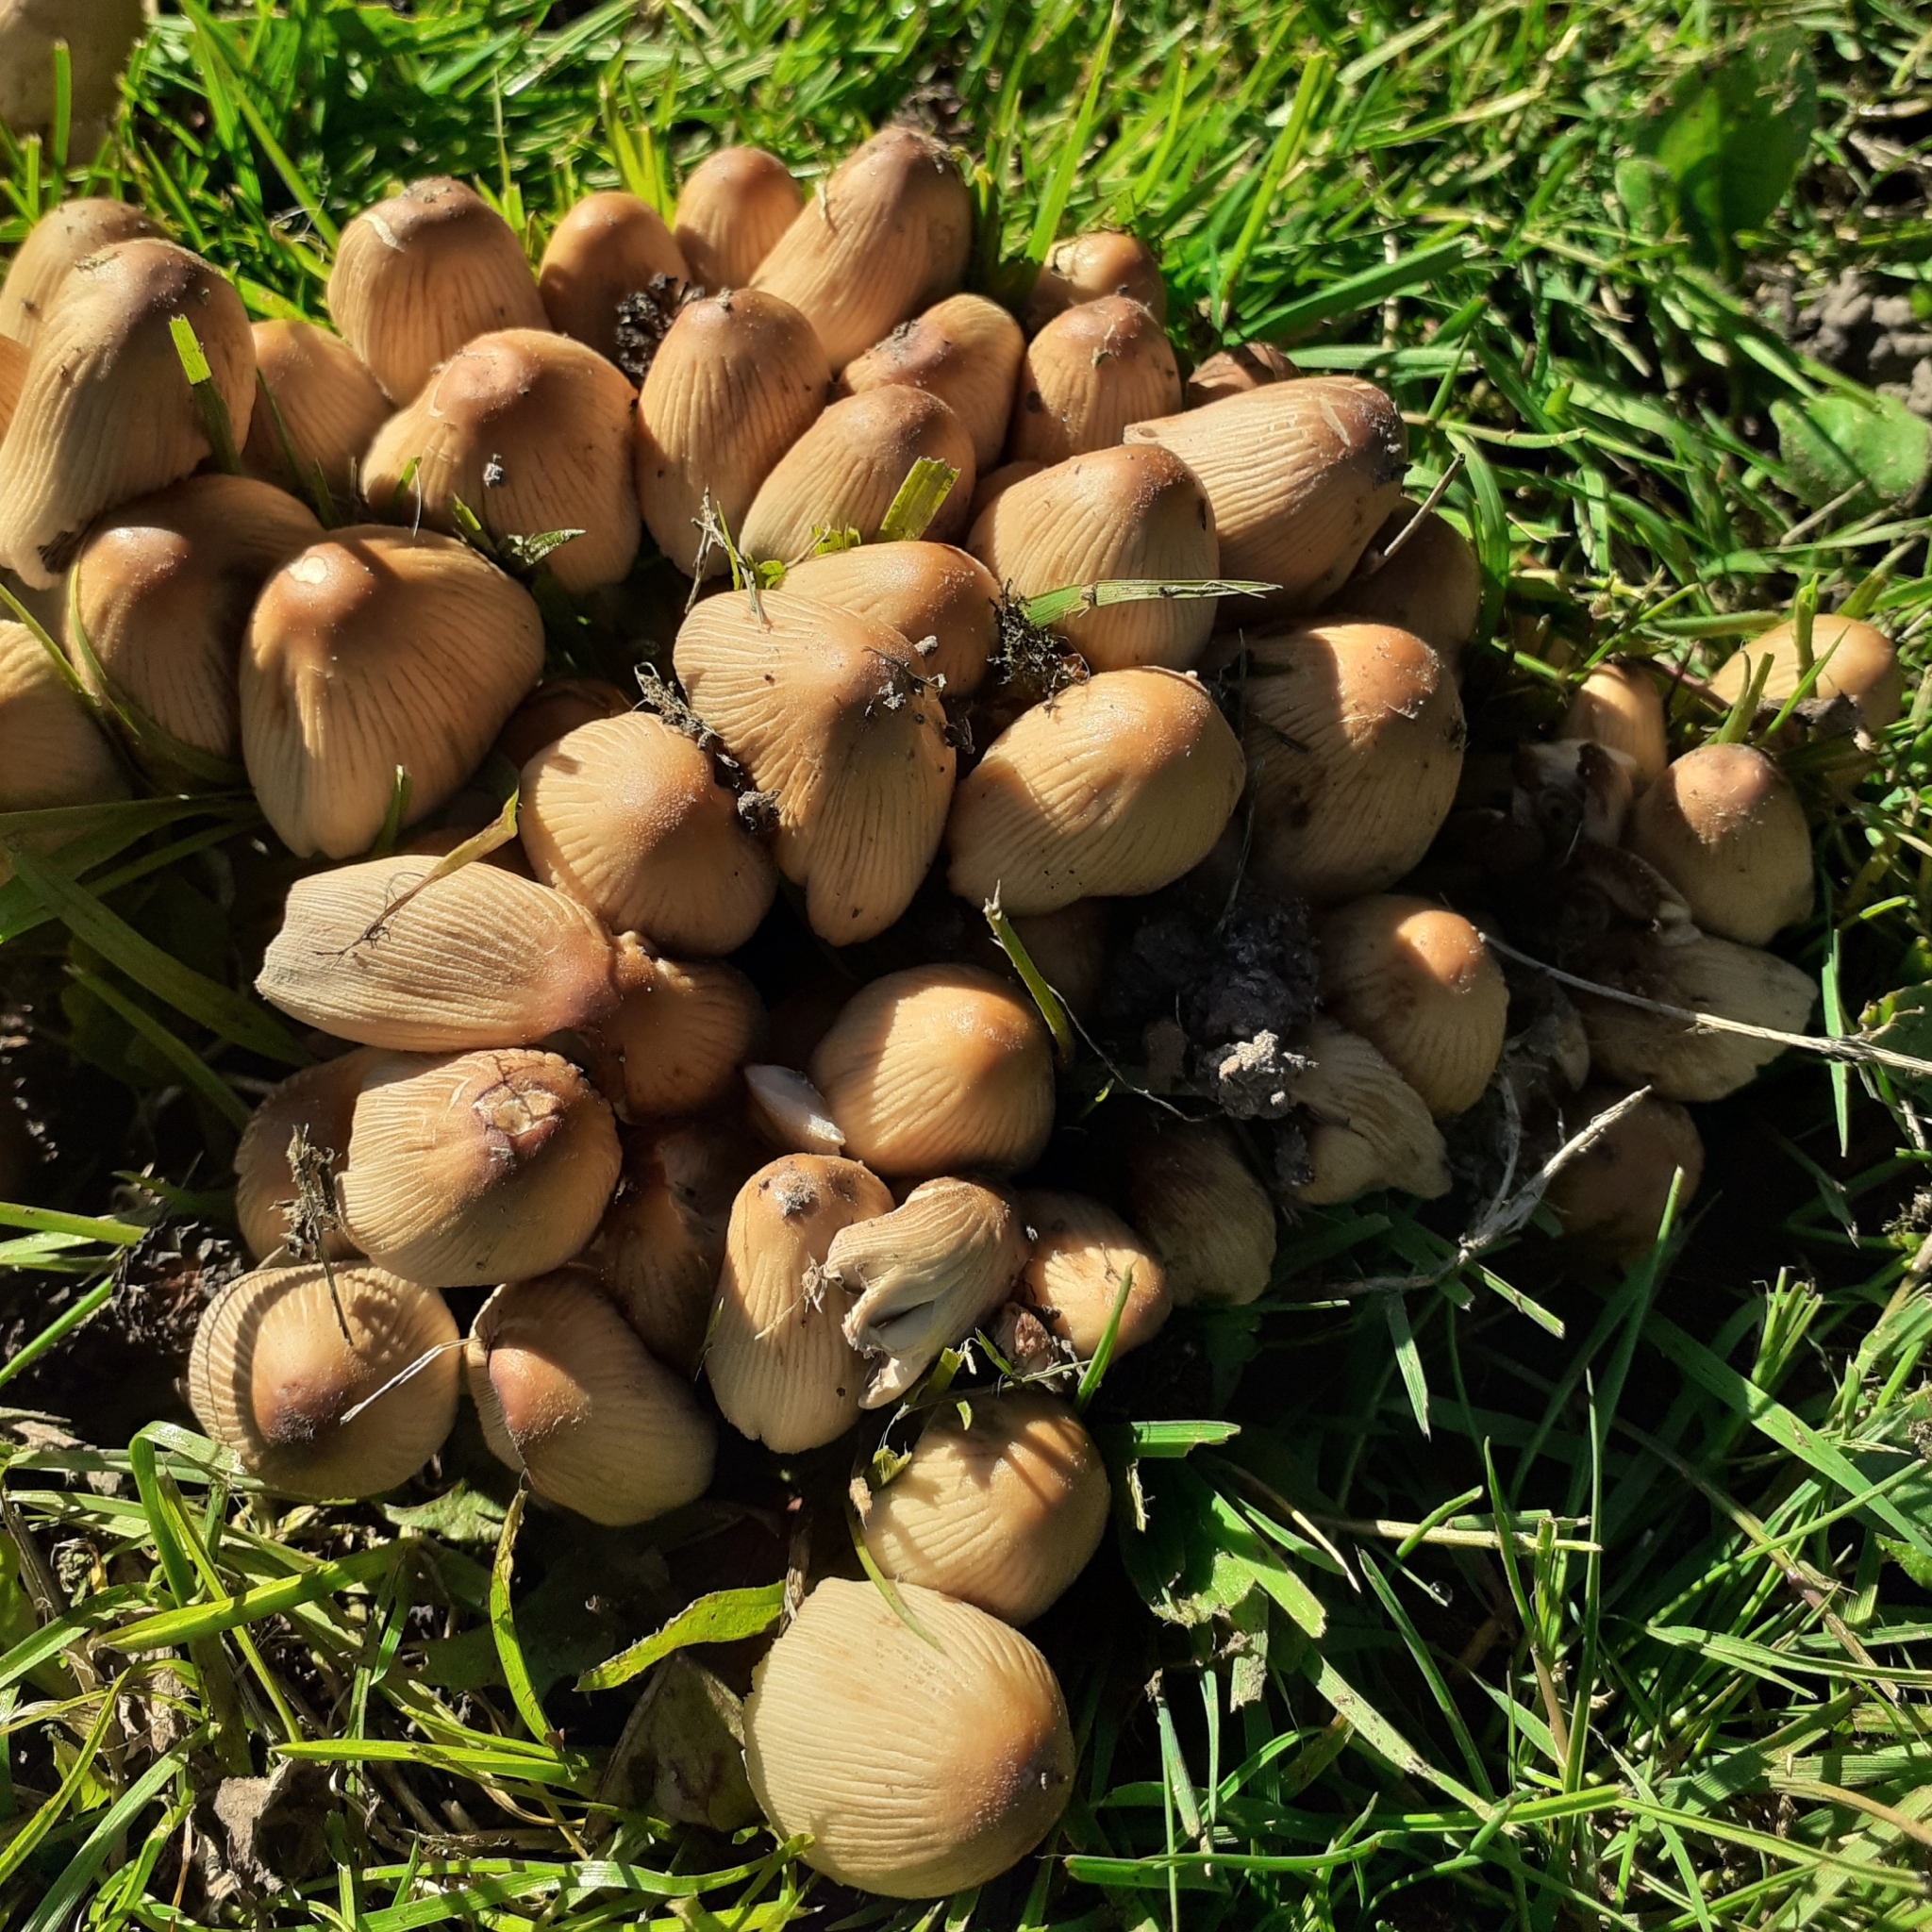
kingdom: Fungi
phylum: Basidiomycota
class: Agaricomycetes
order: Agaricales
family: Psathyrellaceae
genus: Coprinellus
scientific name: Coprinellus micaceus
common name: Glistening ink-cap
